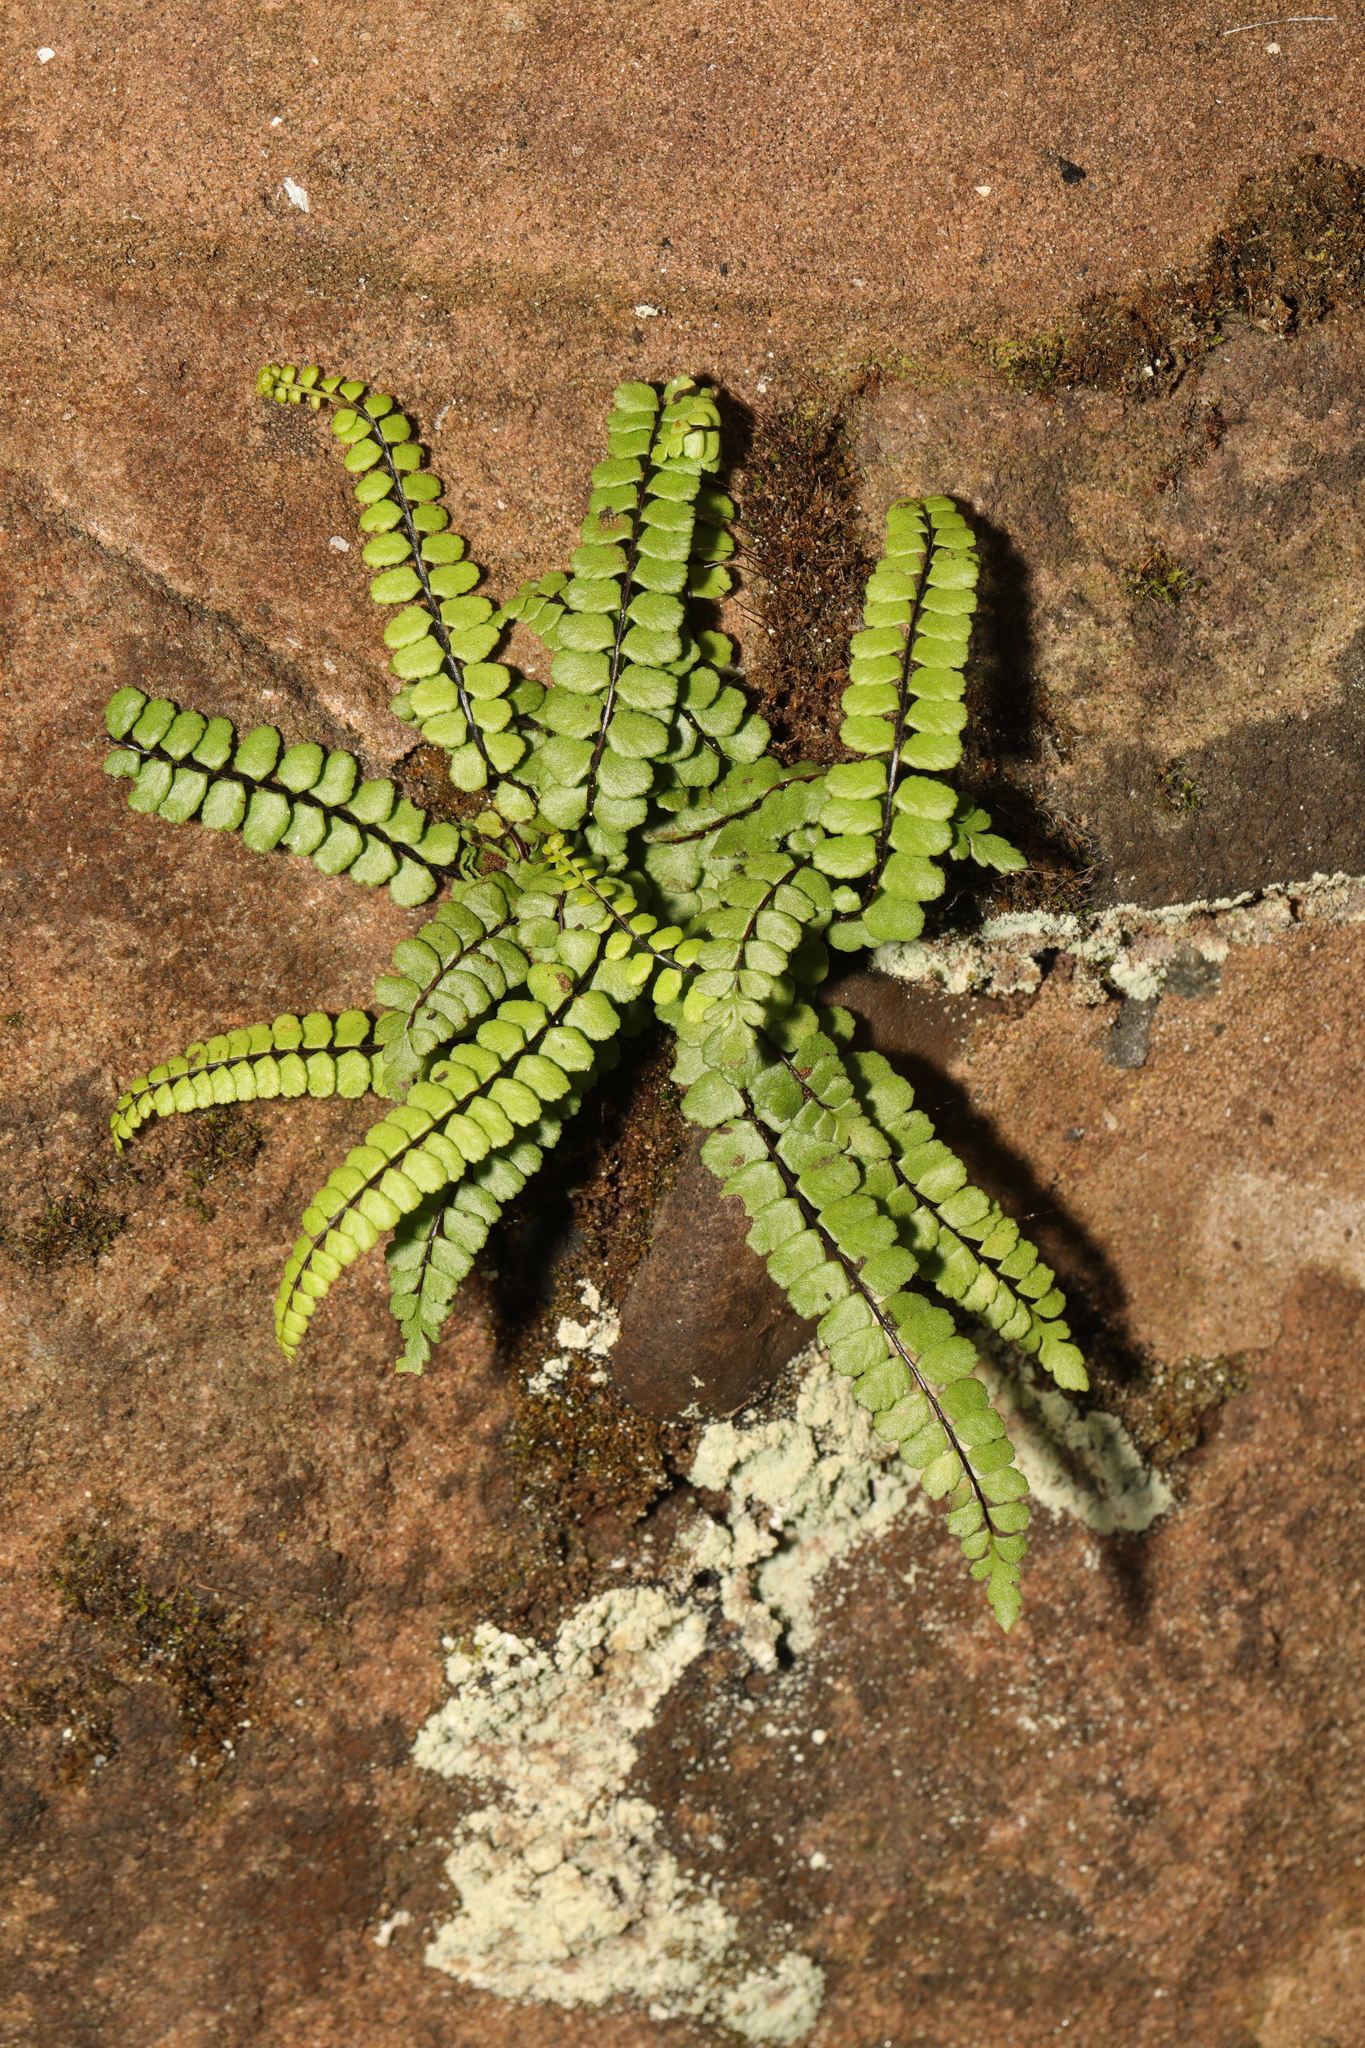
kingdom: Plantae
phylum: Tracheophyta
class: Polypodiopsida
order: Polypodiales
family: Aspleniaceae
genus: Asplenium
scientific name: Asplenium trichomanes
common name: Maidenhair spleenwort
